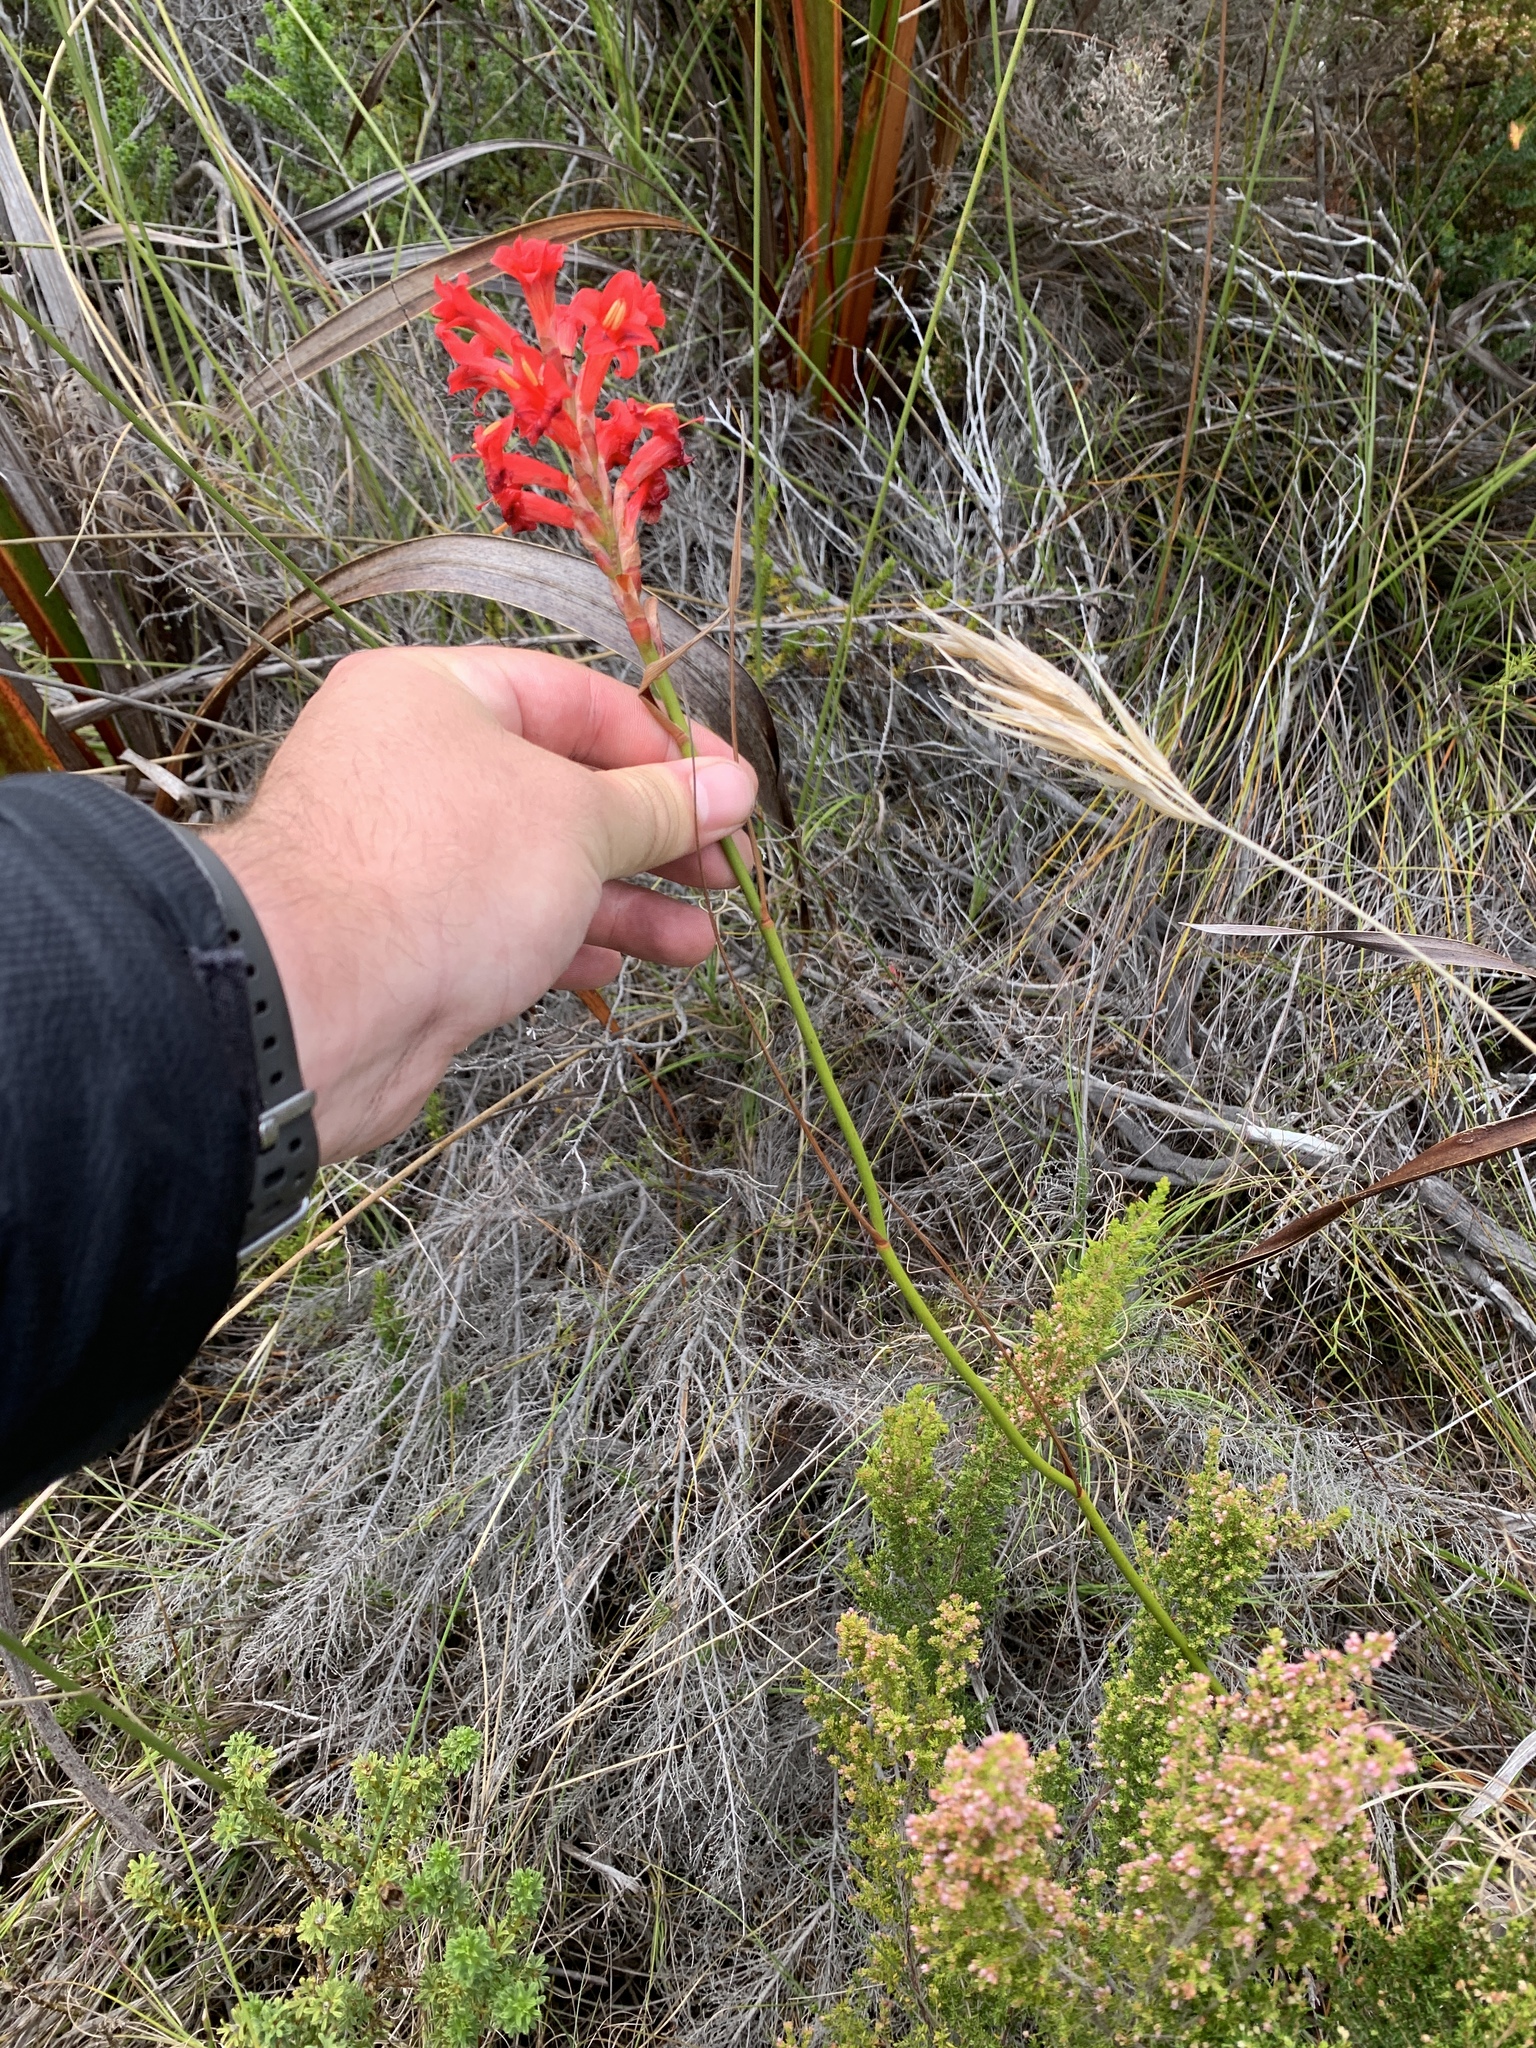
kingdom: Plantae
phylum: Tracheophyta
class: Liliopsida
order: Asparagales
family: Iridaceae
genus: Tritoniopsis
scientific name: Tritoniopsis triticea
